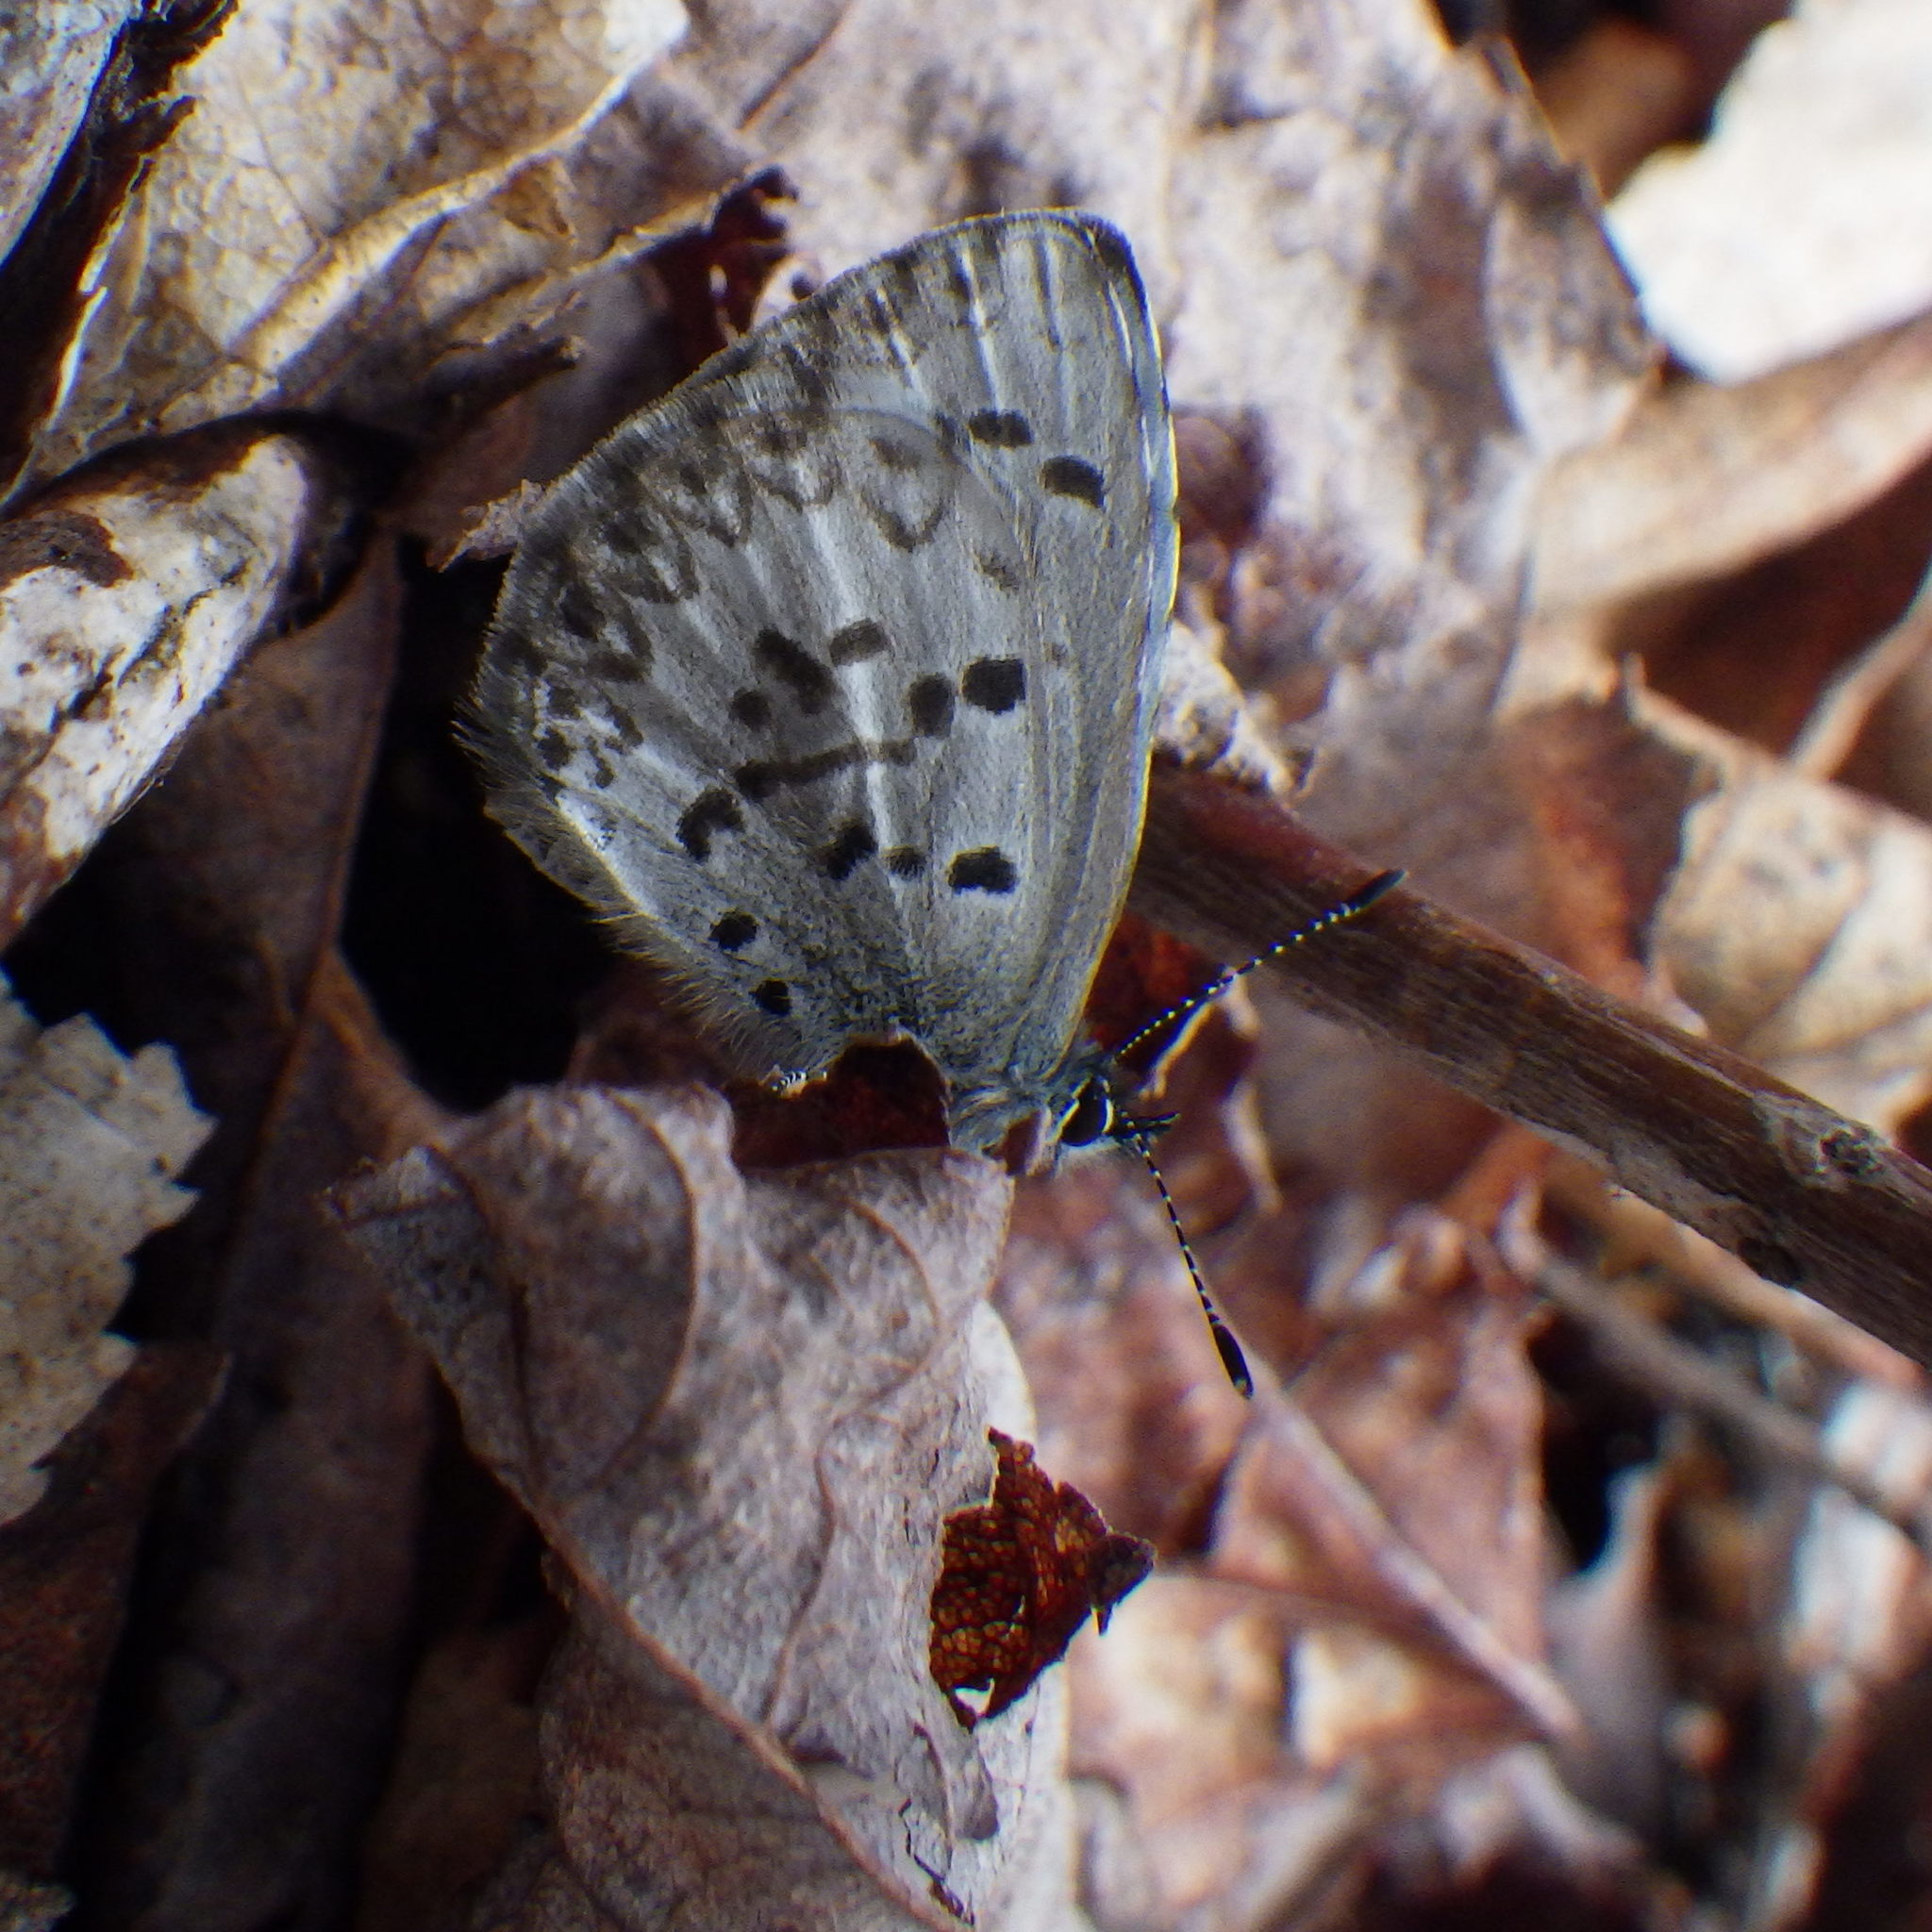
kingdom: Animalia
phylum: Arthropoda
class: Insecta
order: Lepidoptera
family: Lycaenidae
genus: Celastrina
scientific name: Celastrina lucia
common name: Lucia azure
